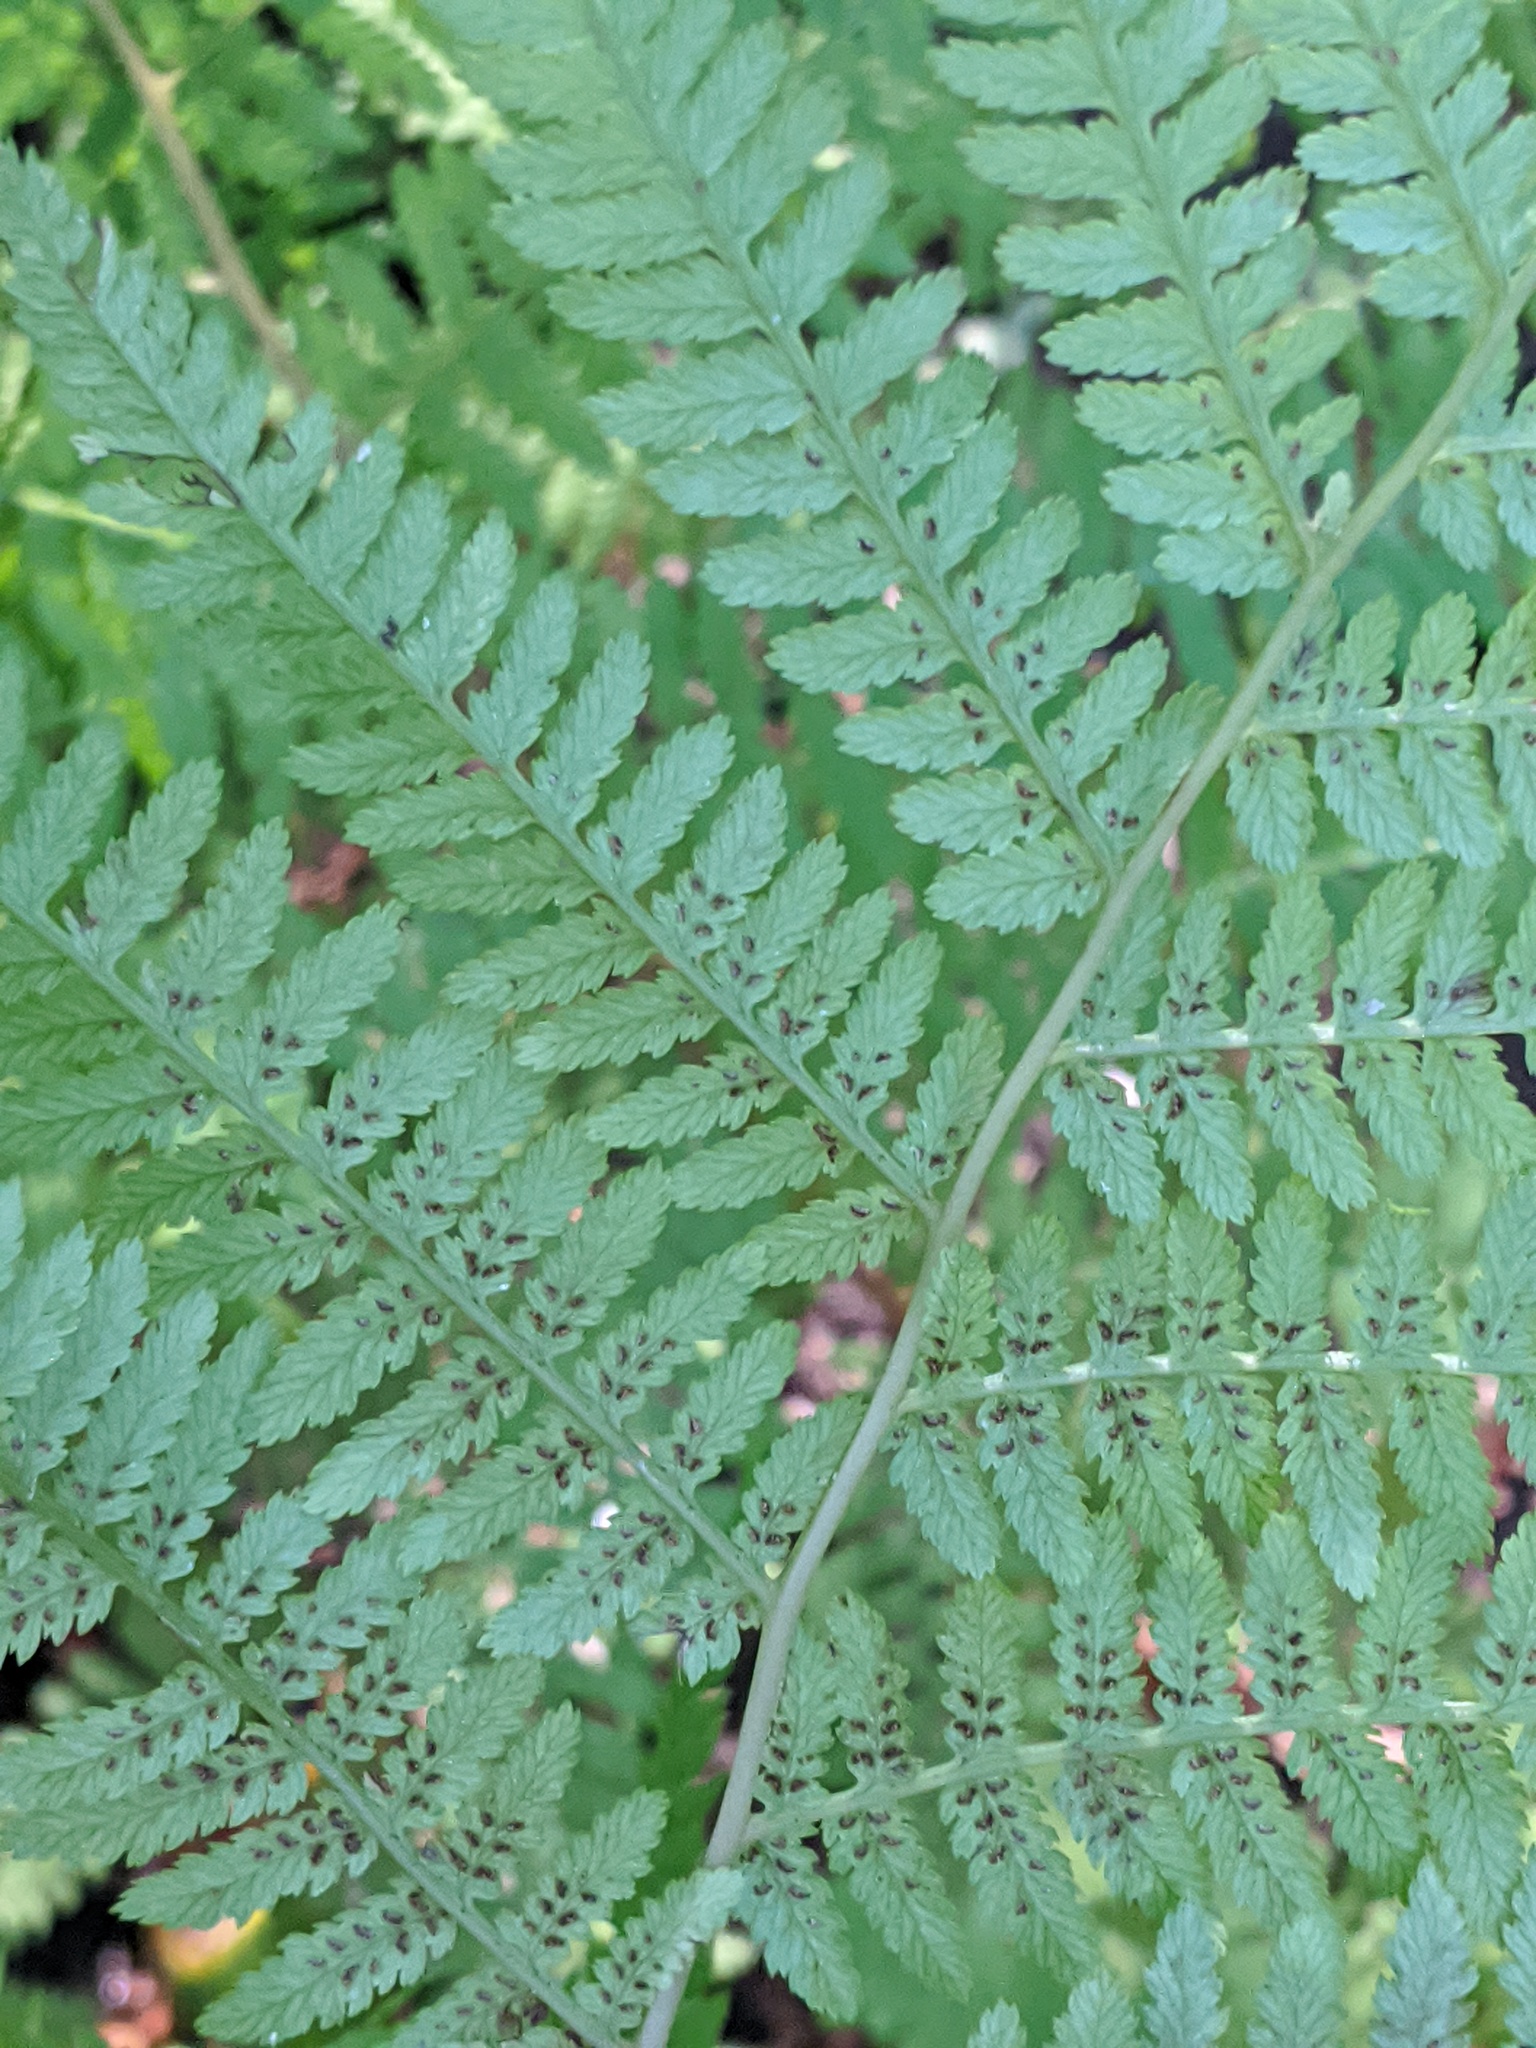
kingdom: Plantae
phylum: Tracheophyta
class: Polypodiopsida
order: Polypodiales
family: Athyriaceae
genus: Athyrium
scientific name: Athyrium angustum
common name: Northern lady fern
